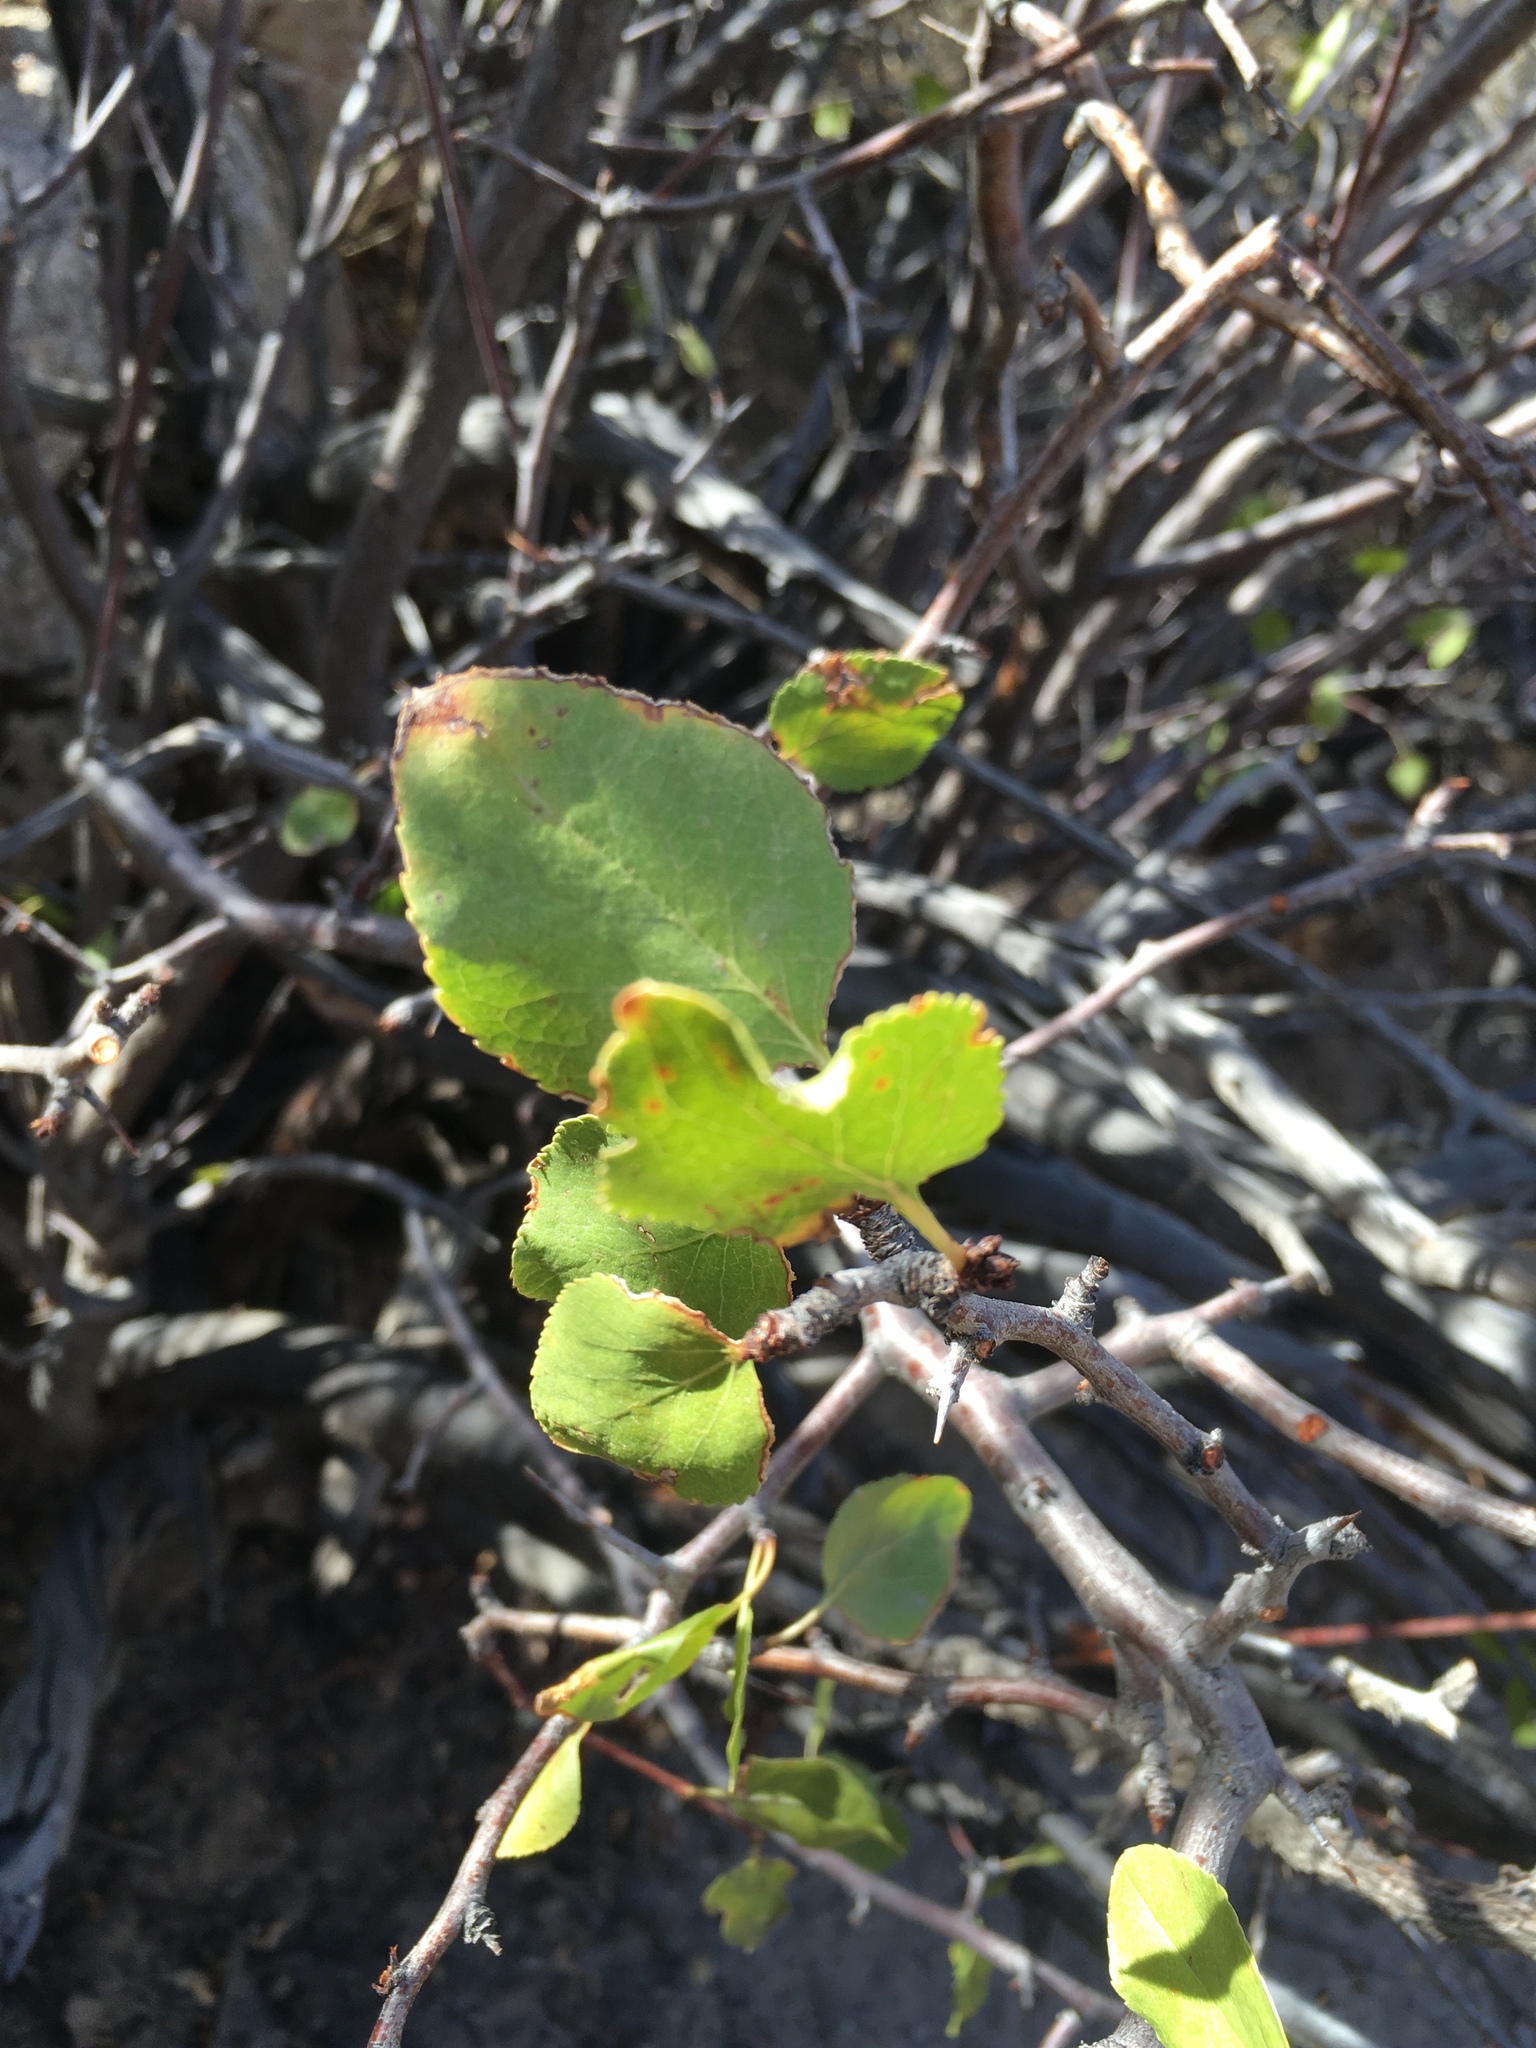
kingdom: Plantae
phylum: Tracheophyta
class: Magnoliopsida
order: Rosales
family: Rosaceae
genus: Prunus
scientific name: Prunus fremontii
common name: Desert apricot
